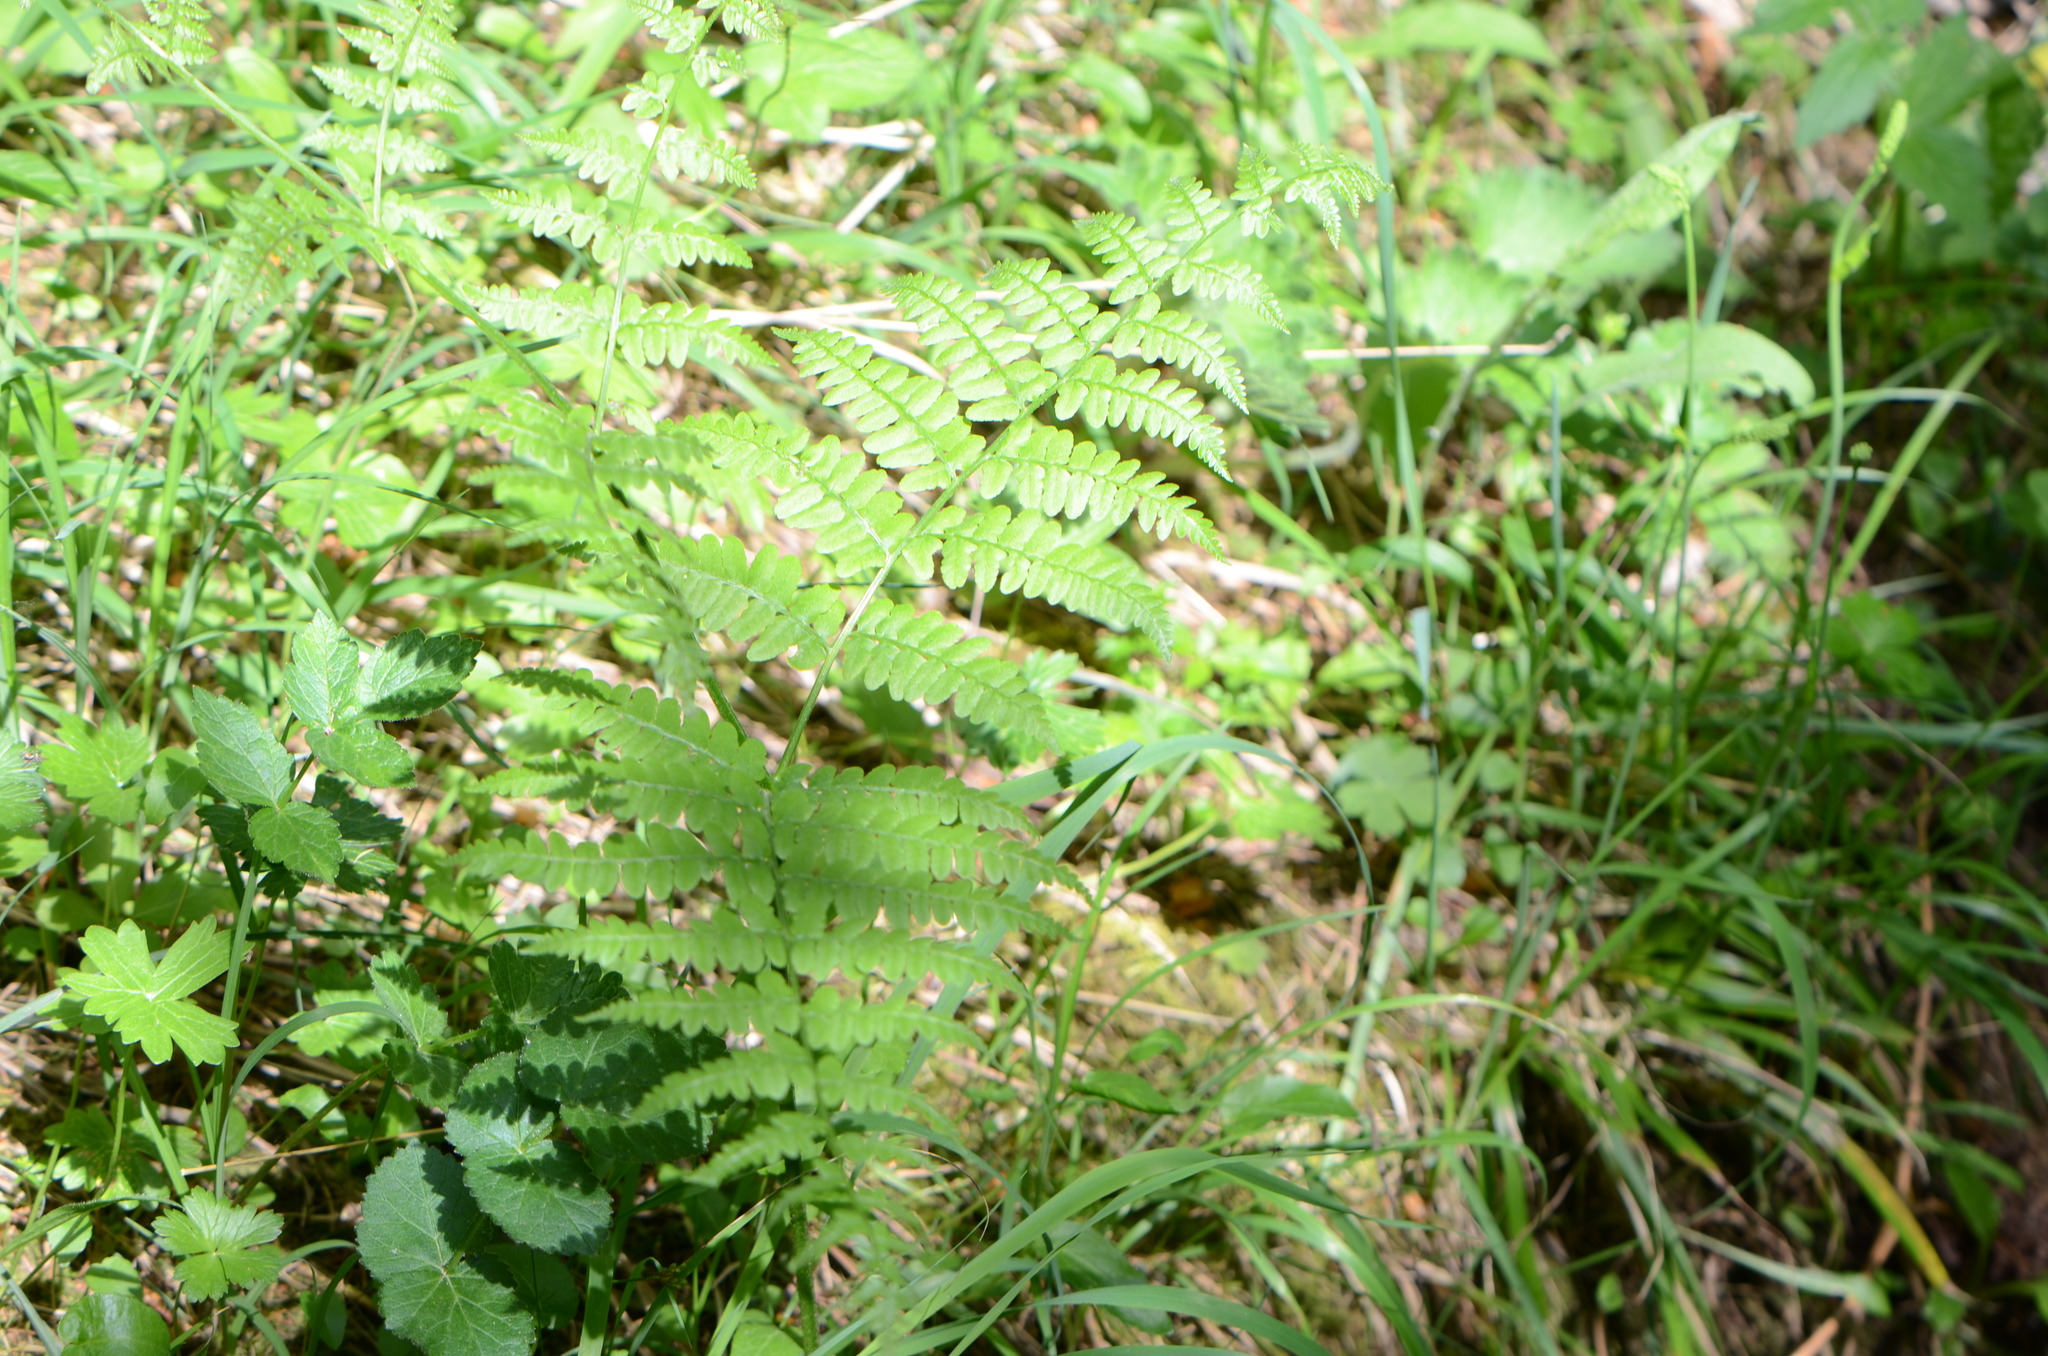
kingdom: Plantae
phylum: Tracheophyta
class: Polypodiopsida
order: Polypodiales
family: Dennstaedtiaceae
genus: Pteridium
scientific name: Pteridium aquilinum
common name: Bracken
